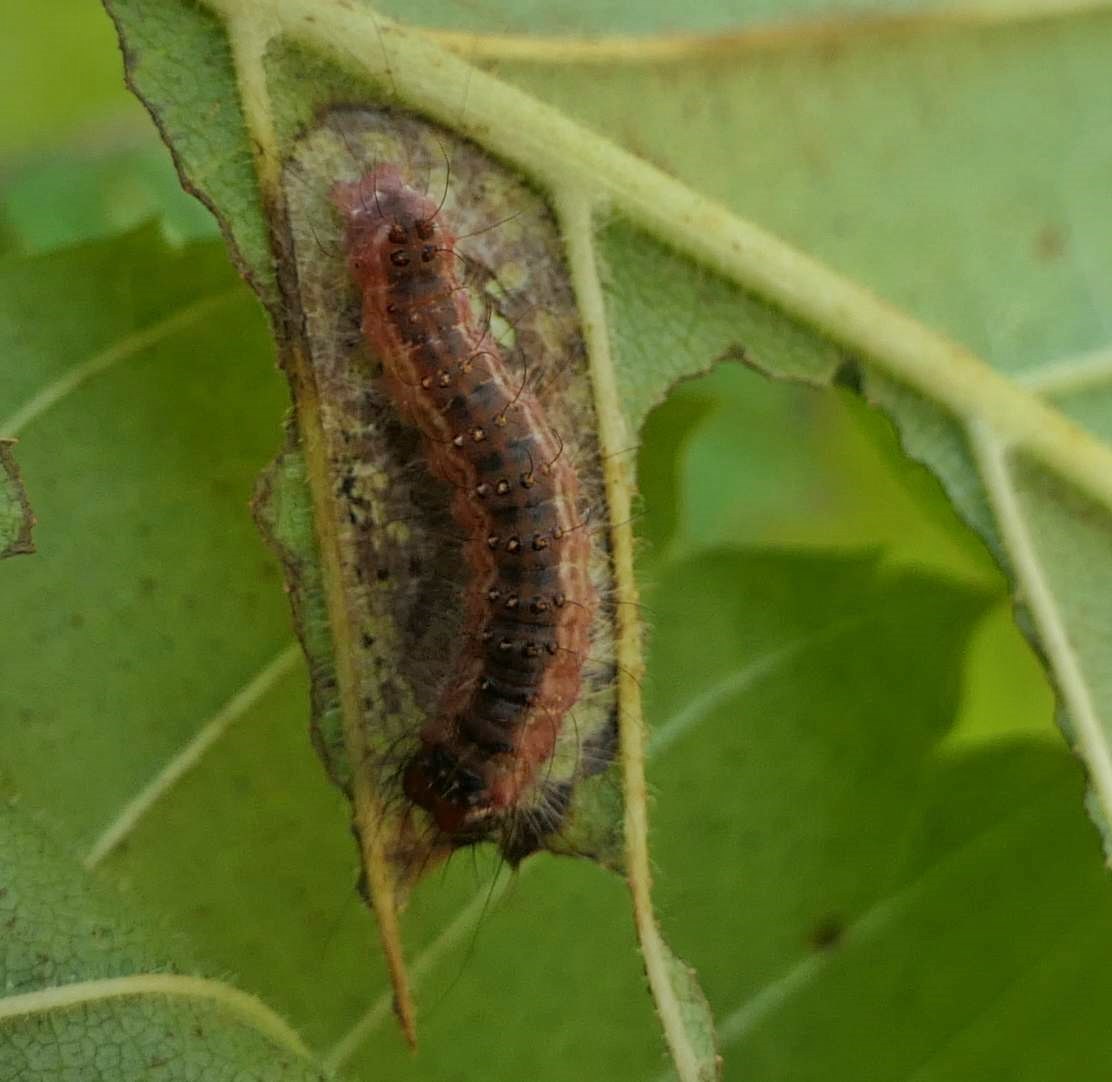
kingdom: Animalia
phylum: Arthropoda
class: Insecta
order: Lepidoptera
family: Noctuidae
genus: Acronicta
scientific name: Acronicta superans
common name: Splendid dagger
